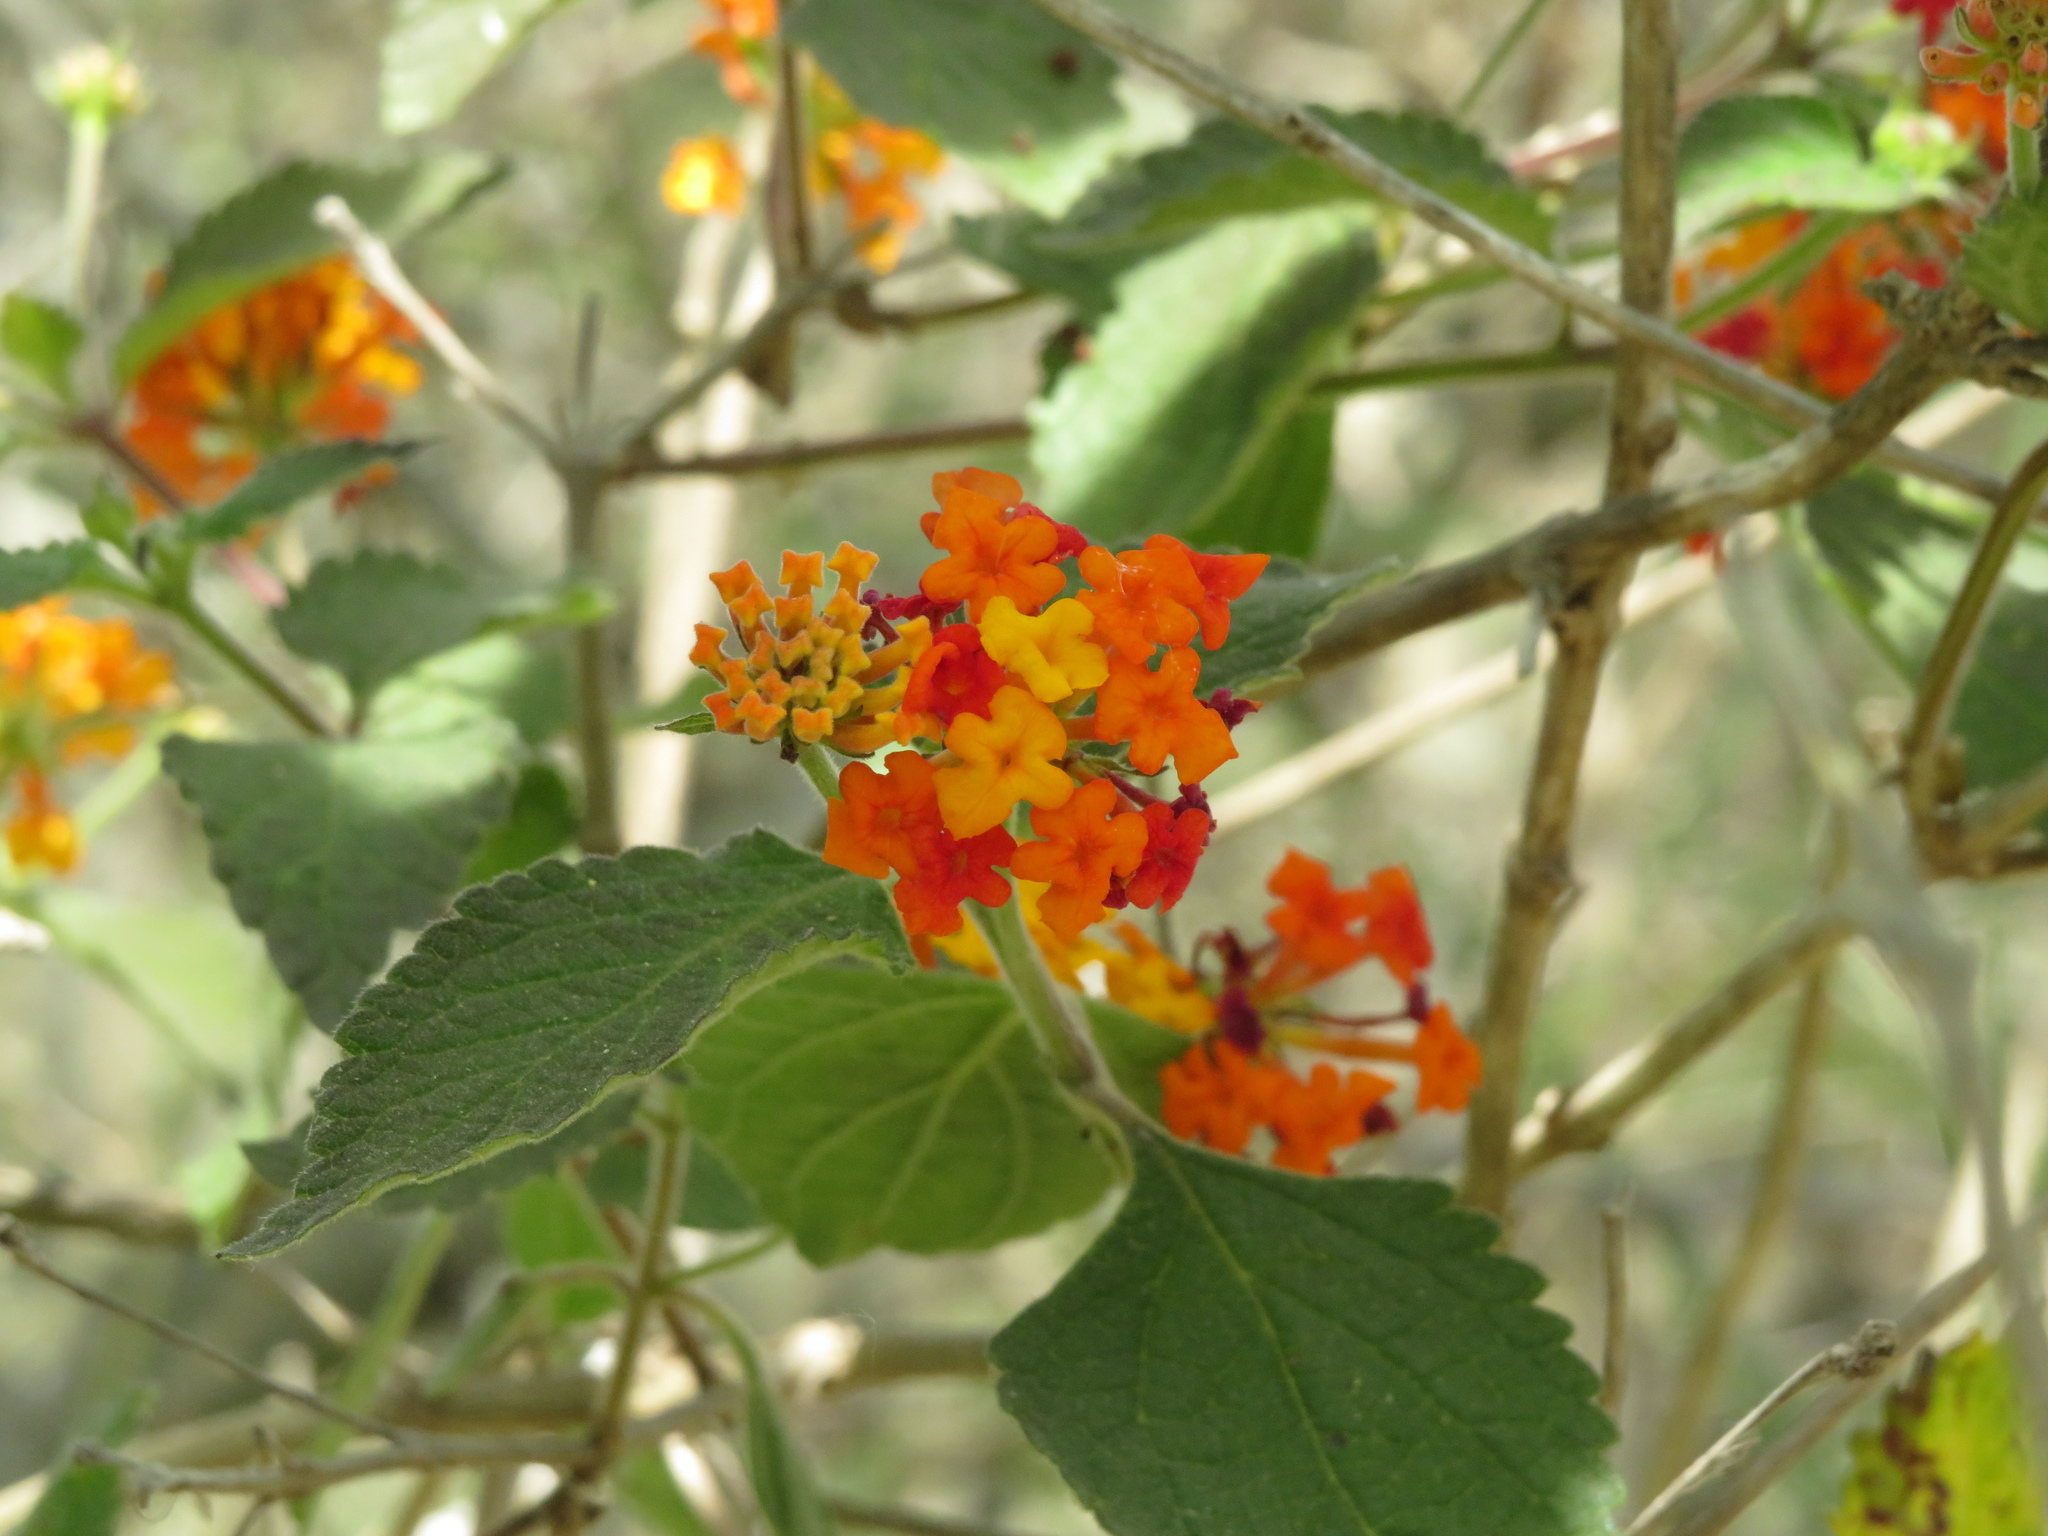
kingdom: Plantae
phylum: Tracheophyta
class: Magnoliopsida
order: Lamiales
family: Verbenaceae
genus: Lantana
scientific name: Lantana camara
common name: Lantana
